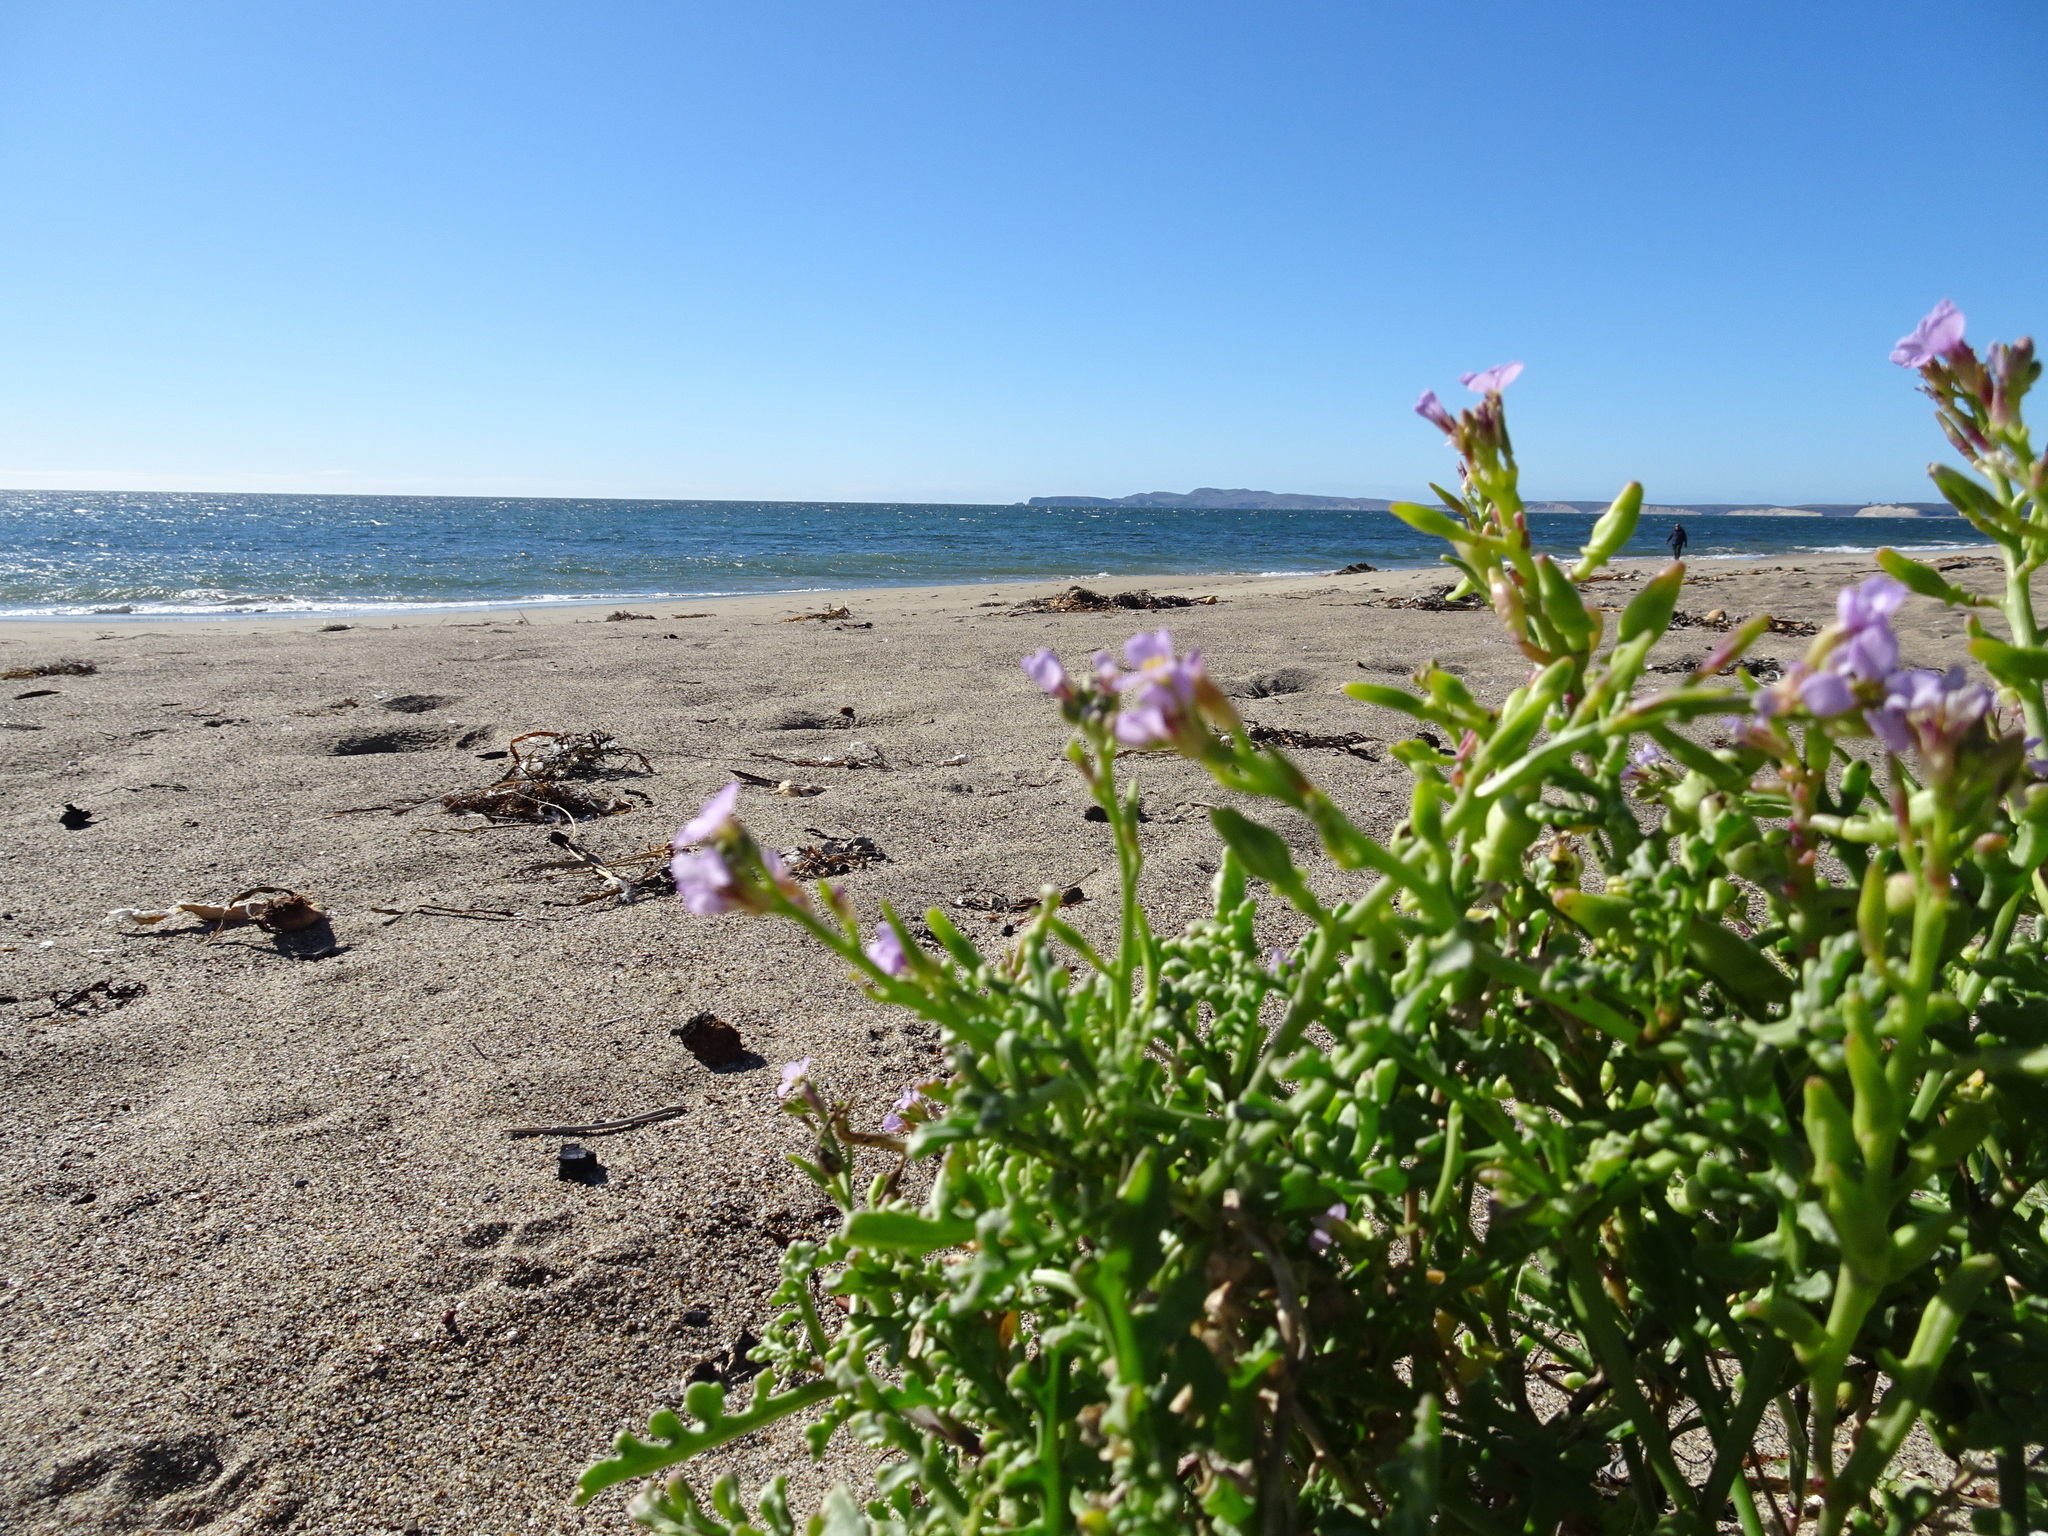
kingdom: Plantae
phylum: Tracheophyta
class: Magnoliopsida
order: Brassicales
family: Brassicaceae
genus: Cakile
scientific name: Cakile maritima
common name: Sea rocket
